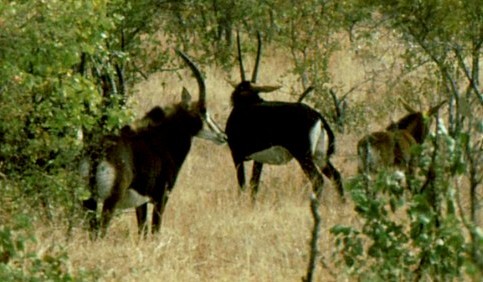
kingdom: Animalia
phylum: Chordata
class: Mammalia
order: Artiodactyla
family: Bovidae
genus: Hippotragus
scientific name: Hippotragus niger
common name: Sable antelope
